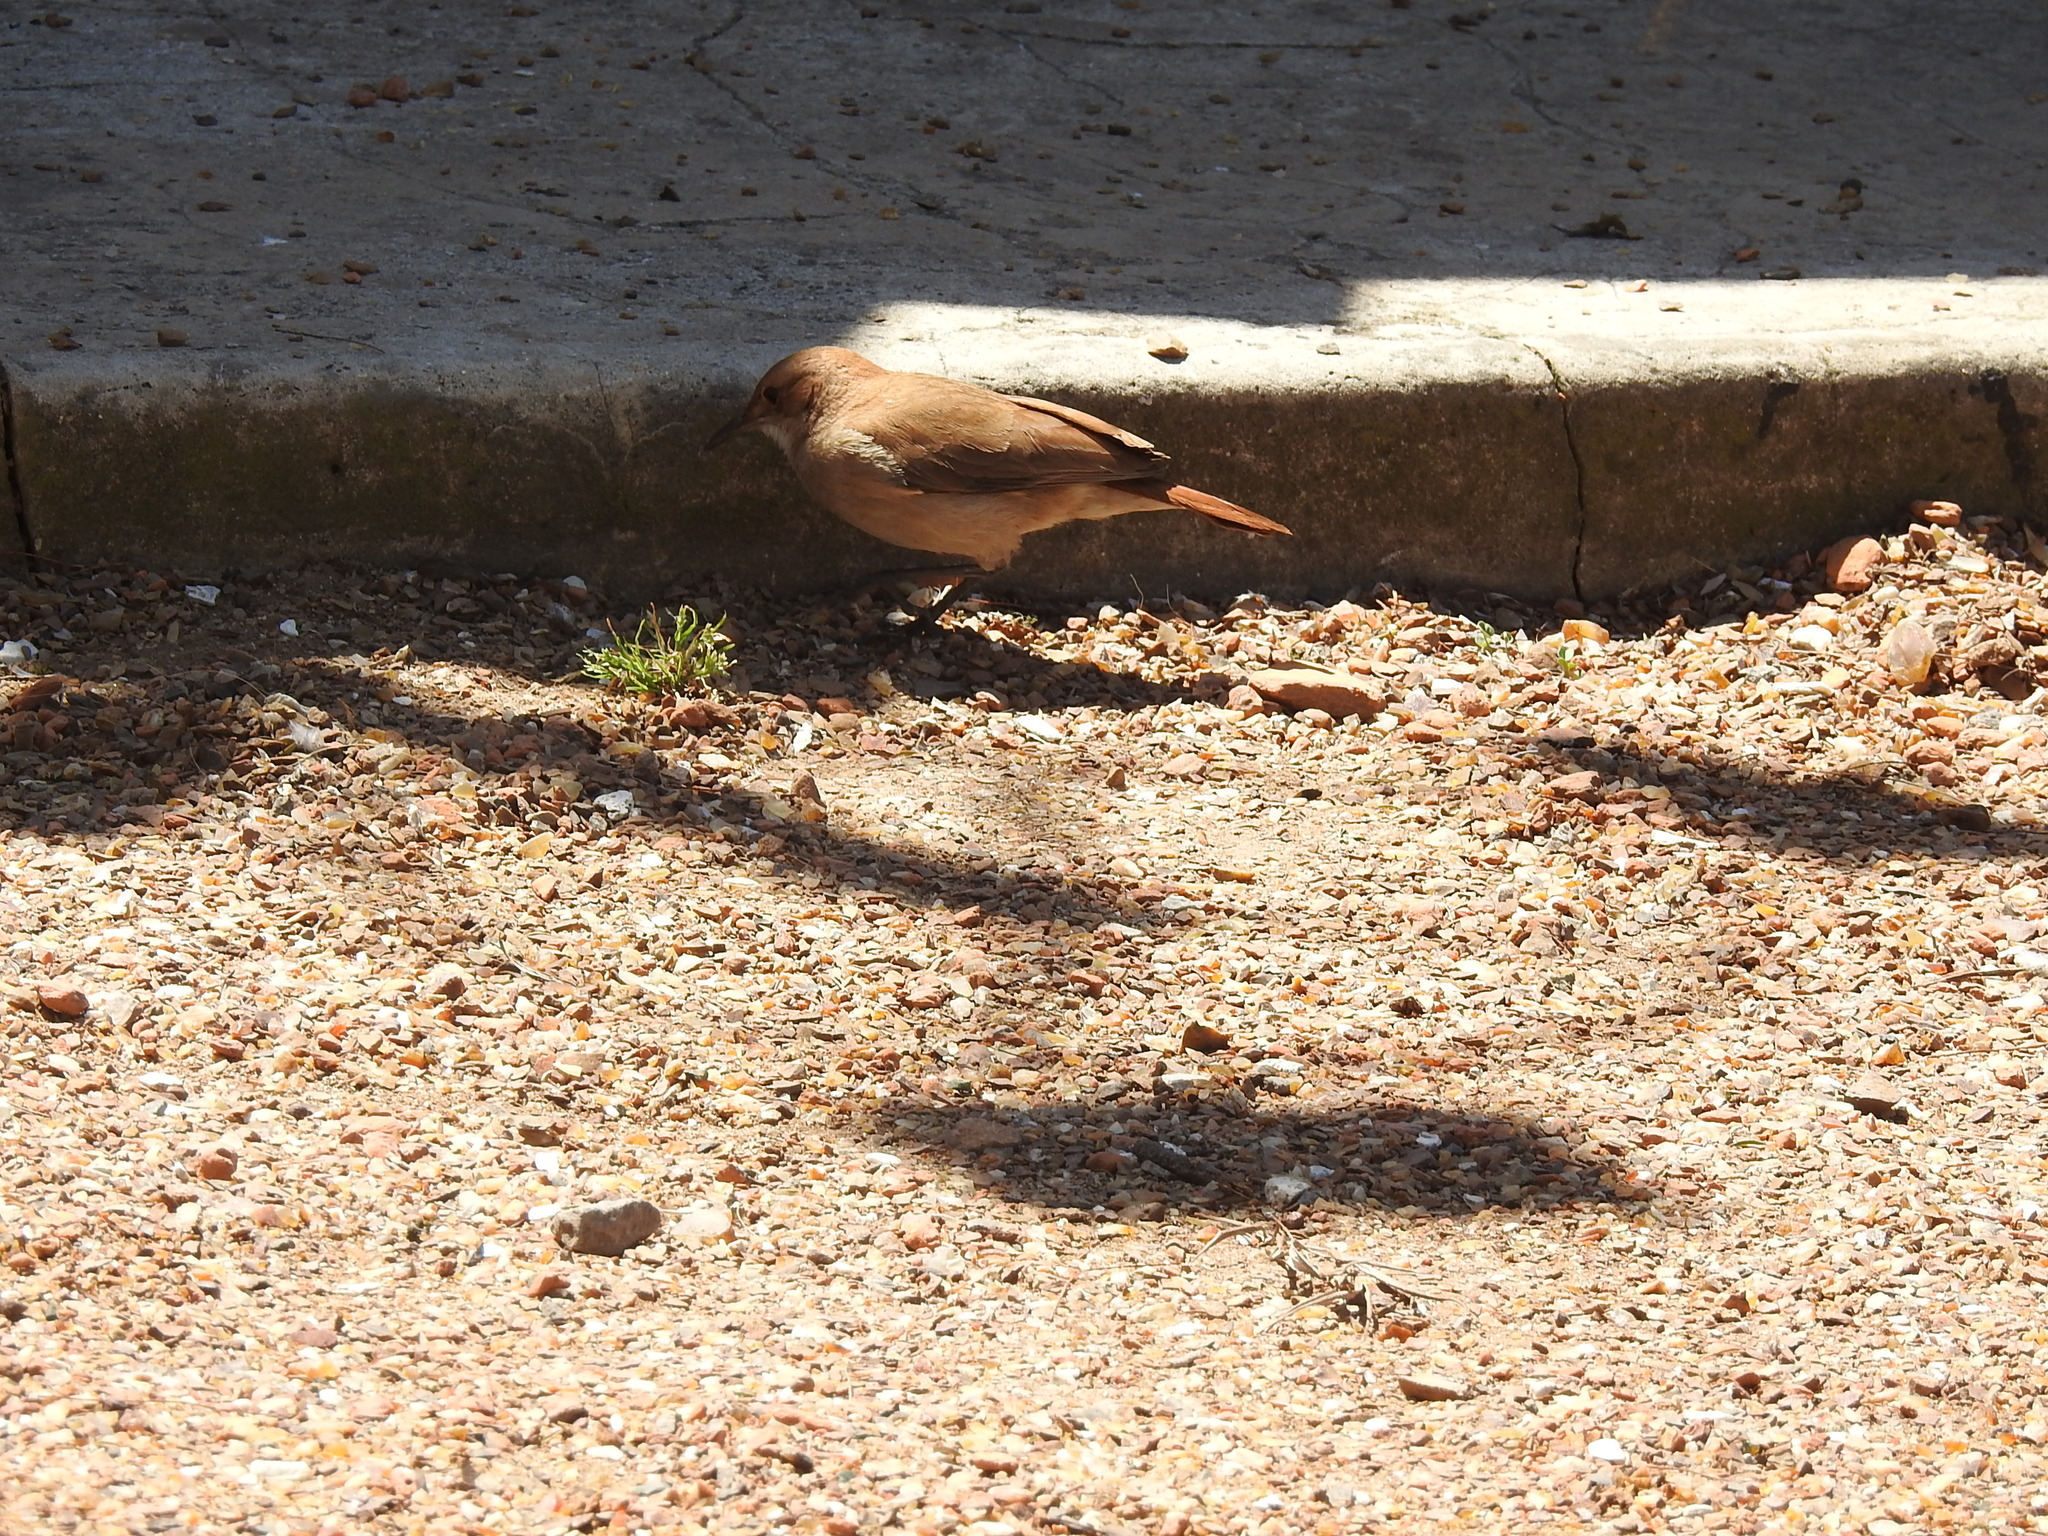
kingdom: Animalia
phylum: Chordata
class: Aves
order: Passeriformes
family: Furnariidae
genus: Furnarius
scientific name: Furnarius rufus
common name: Rufous hornero
